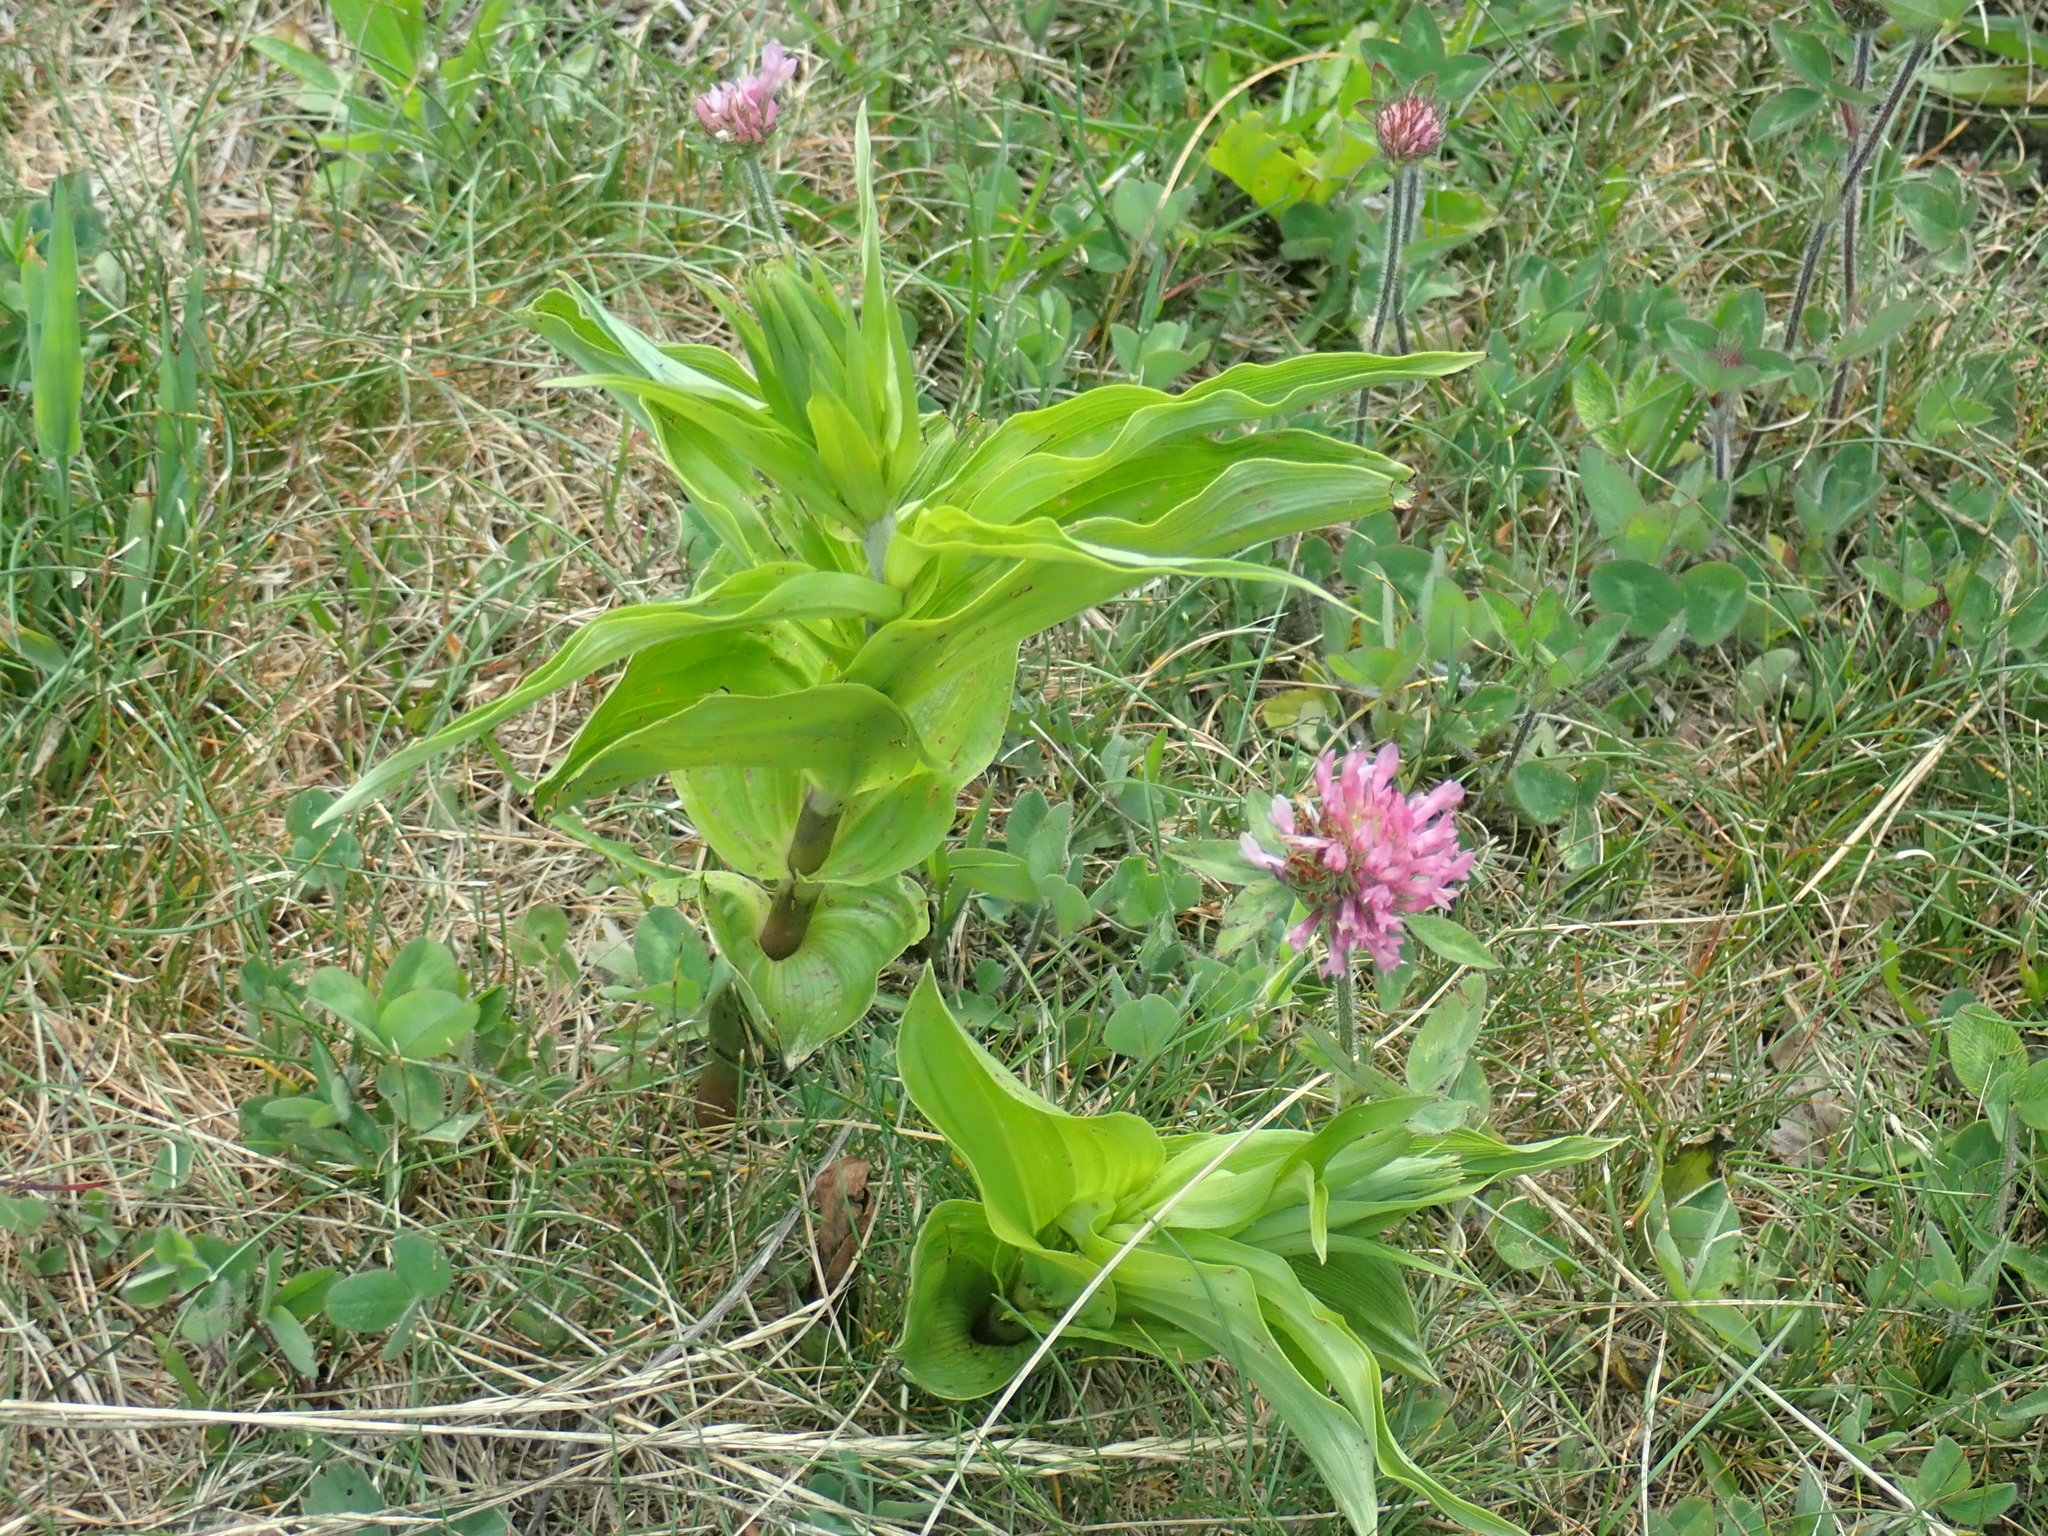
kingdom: Plantae
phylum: Tracheophyta
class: Liliopsida
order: Asparagales
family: Orchidaceae
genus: Epipactis
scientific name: Epipactis helleborine
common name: Broad-leaved helleborine
